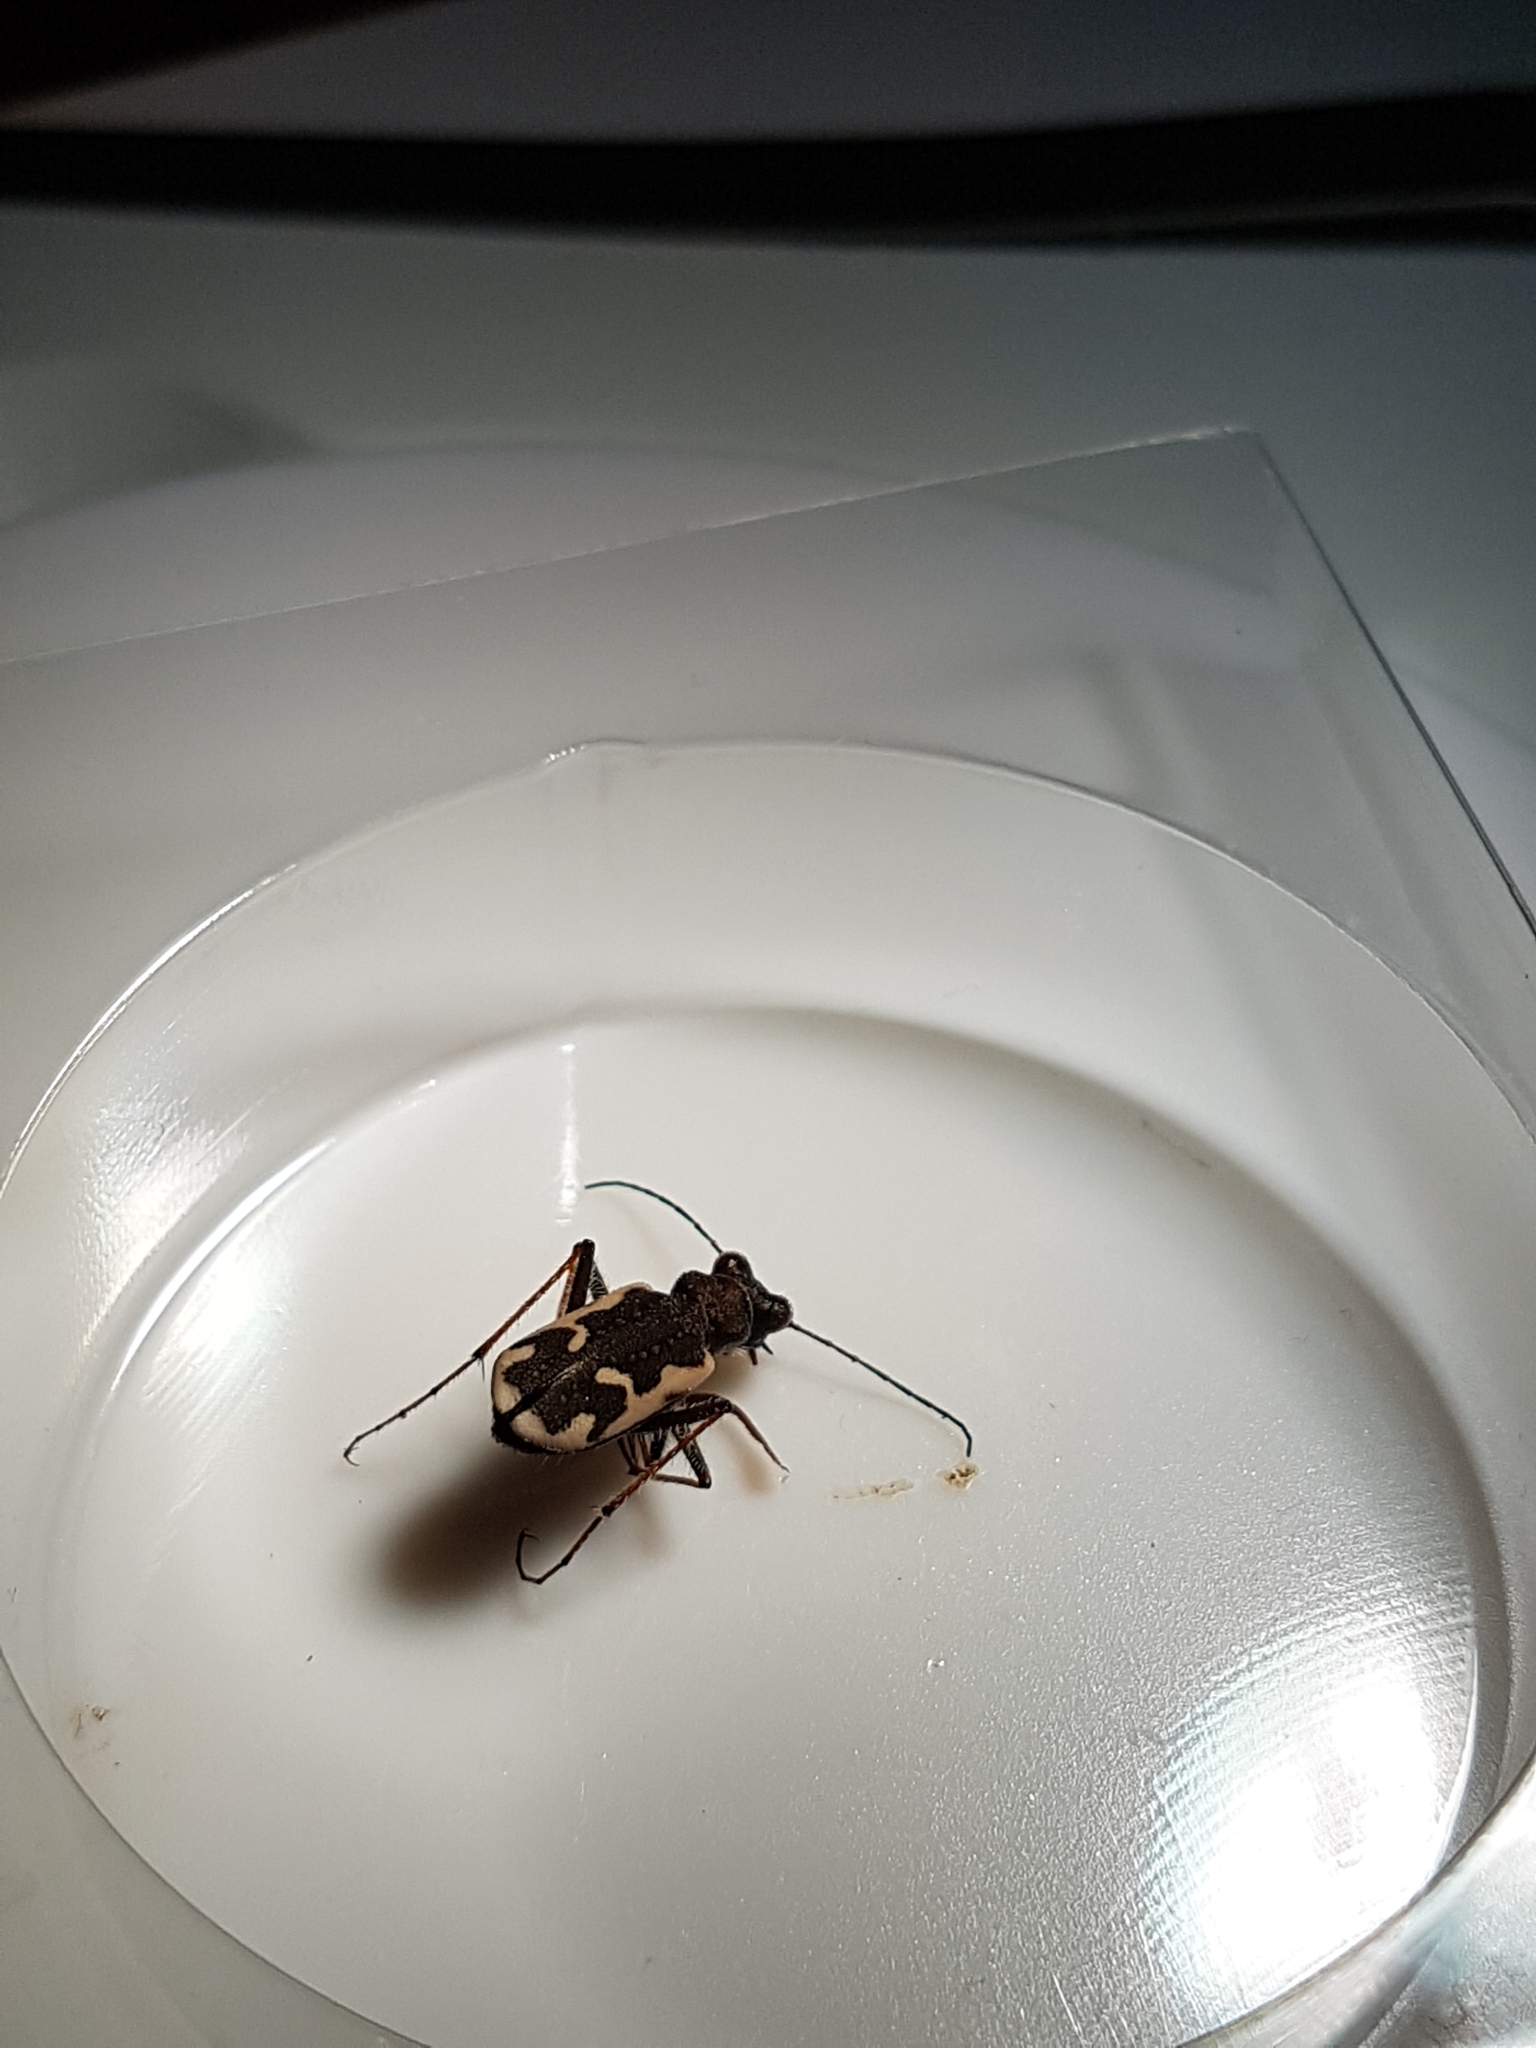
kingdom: Animalia
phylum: Arthropoda
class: Insecta
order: Coleoptera
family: Carabidae
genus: Neocicindela
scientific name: Neocicindela tuberculata
